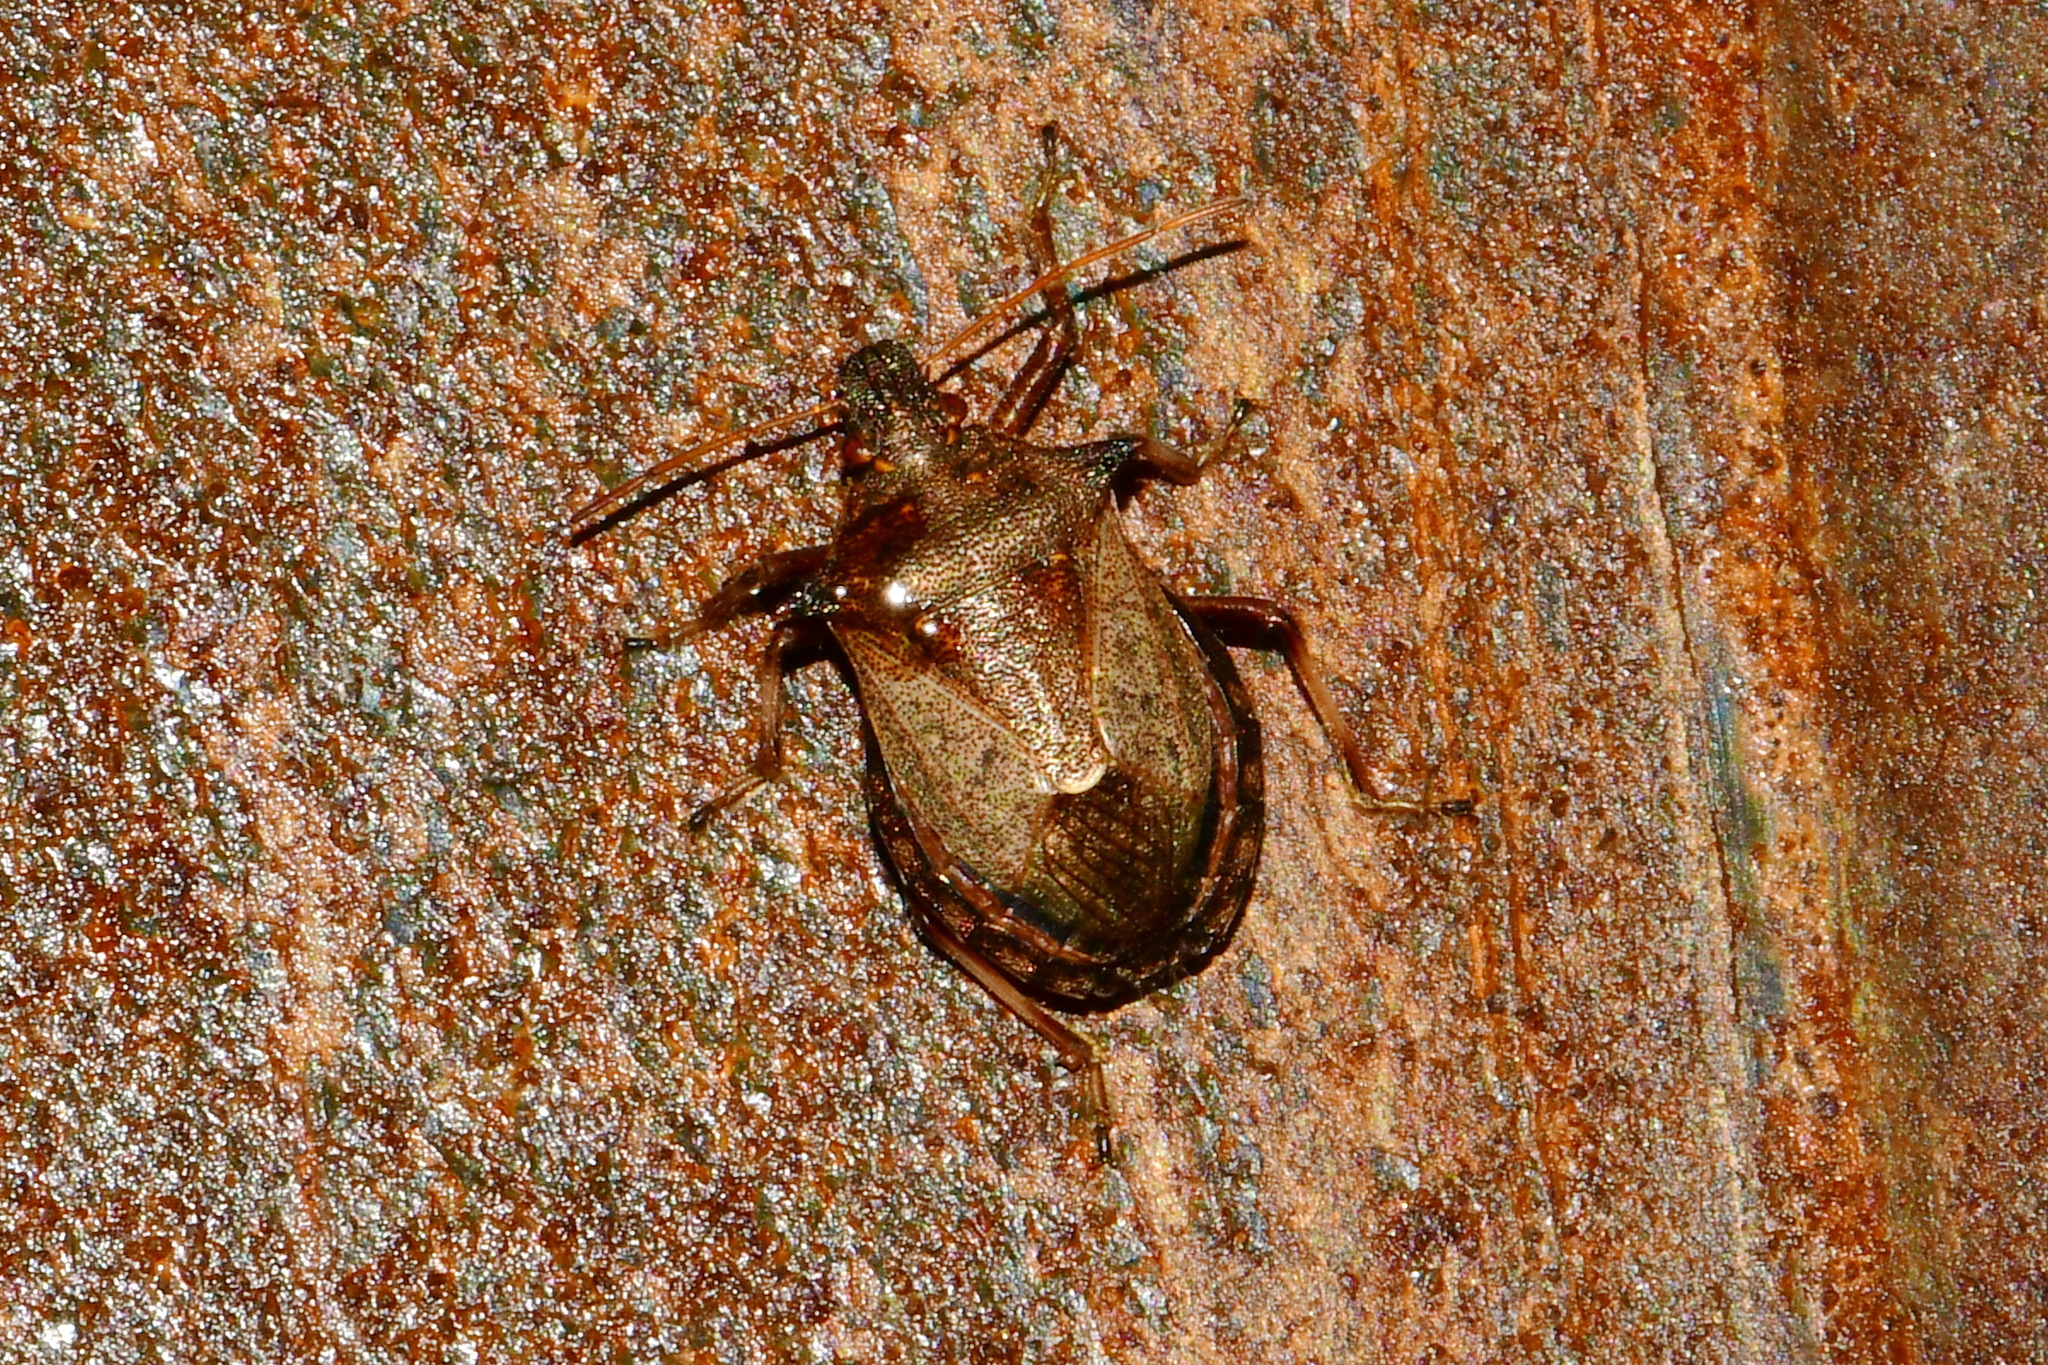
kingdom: Animalia
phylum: Arthropoda
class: Insecta
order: Hemiptera
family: Pentatomidae
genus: Picromerus
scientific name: Picromerus bidens
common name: Spiked shieldbug
